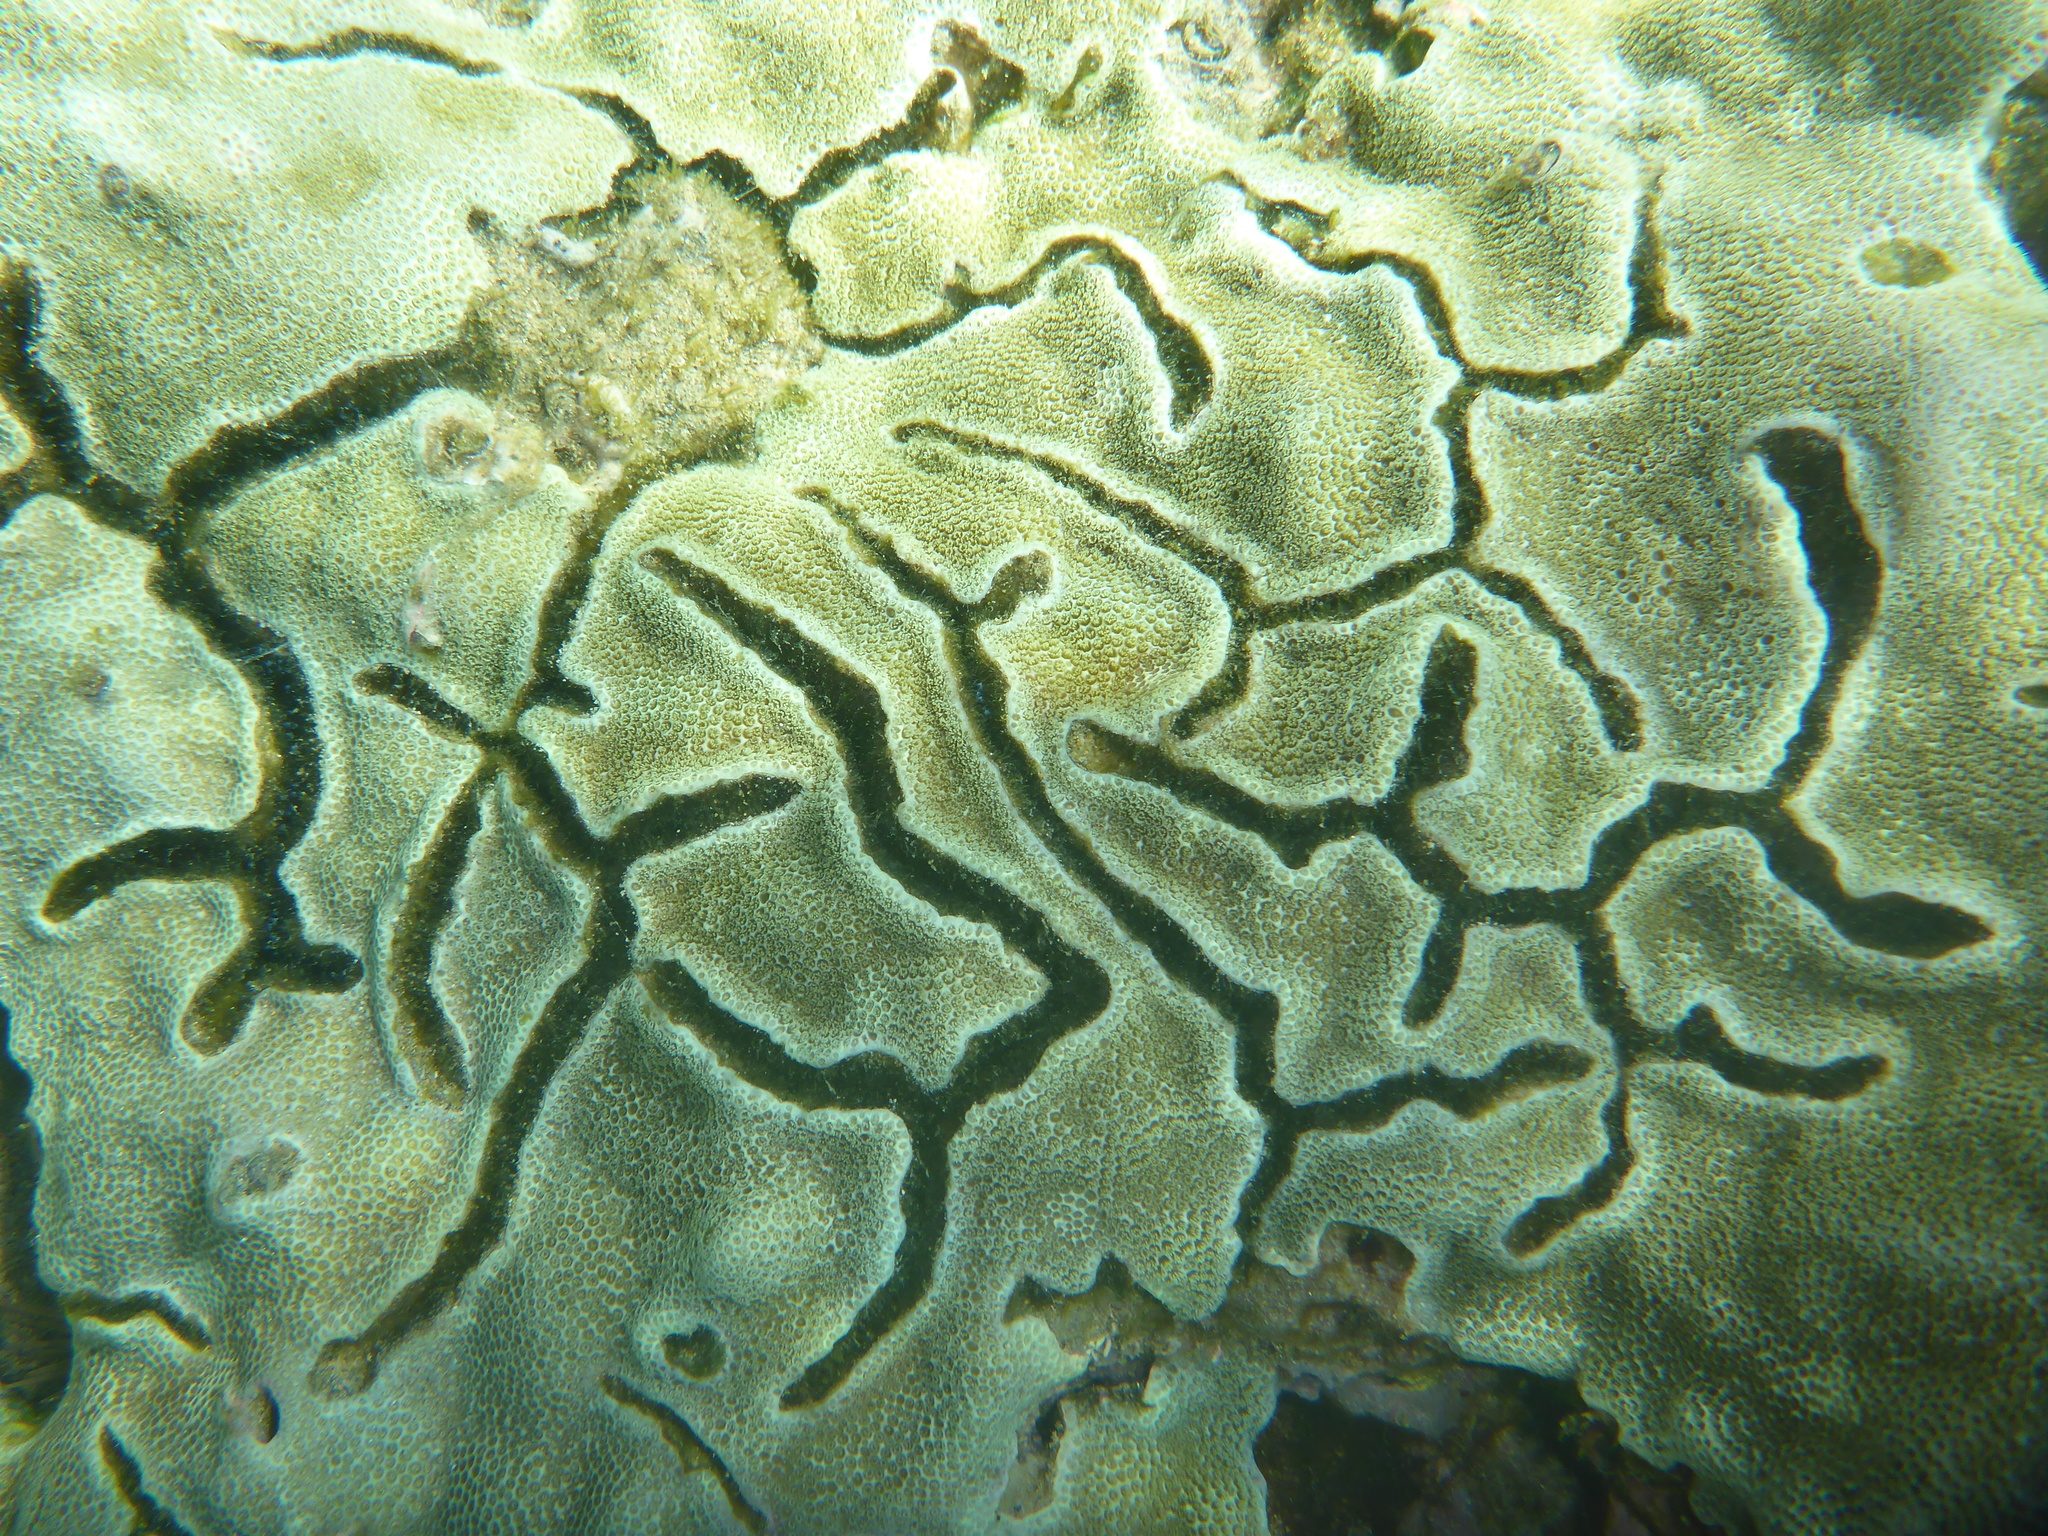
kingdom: Animalia
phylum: Arthropoda
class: Malacostraca
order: Decapoda
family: Alpheidae
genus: Alpheus
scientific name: Alpheus deuteropus
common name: Petroglyph shrimp
